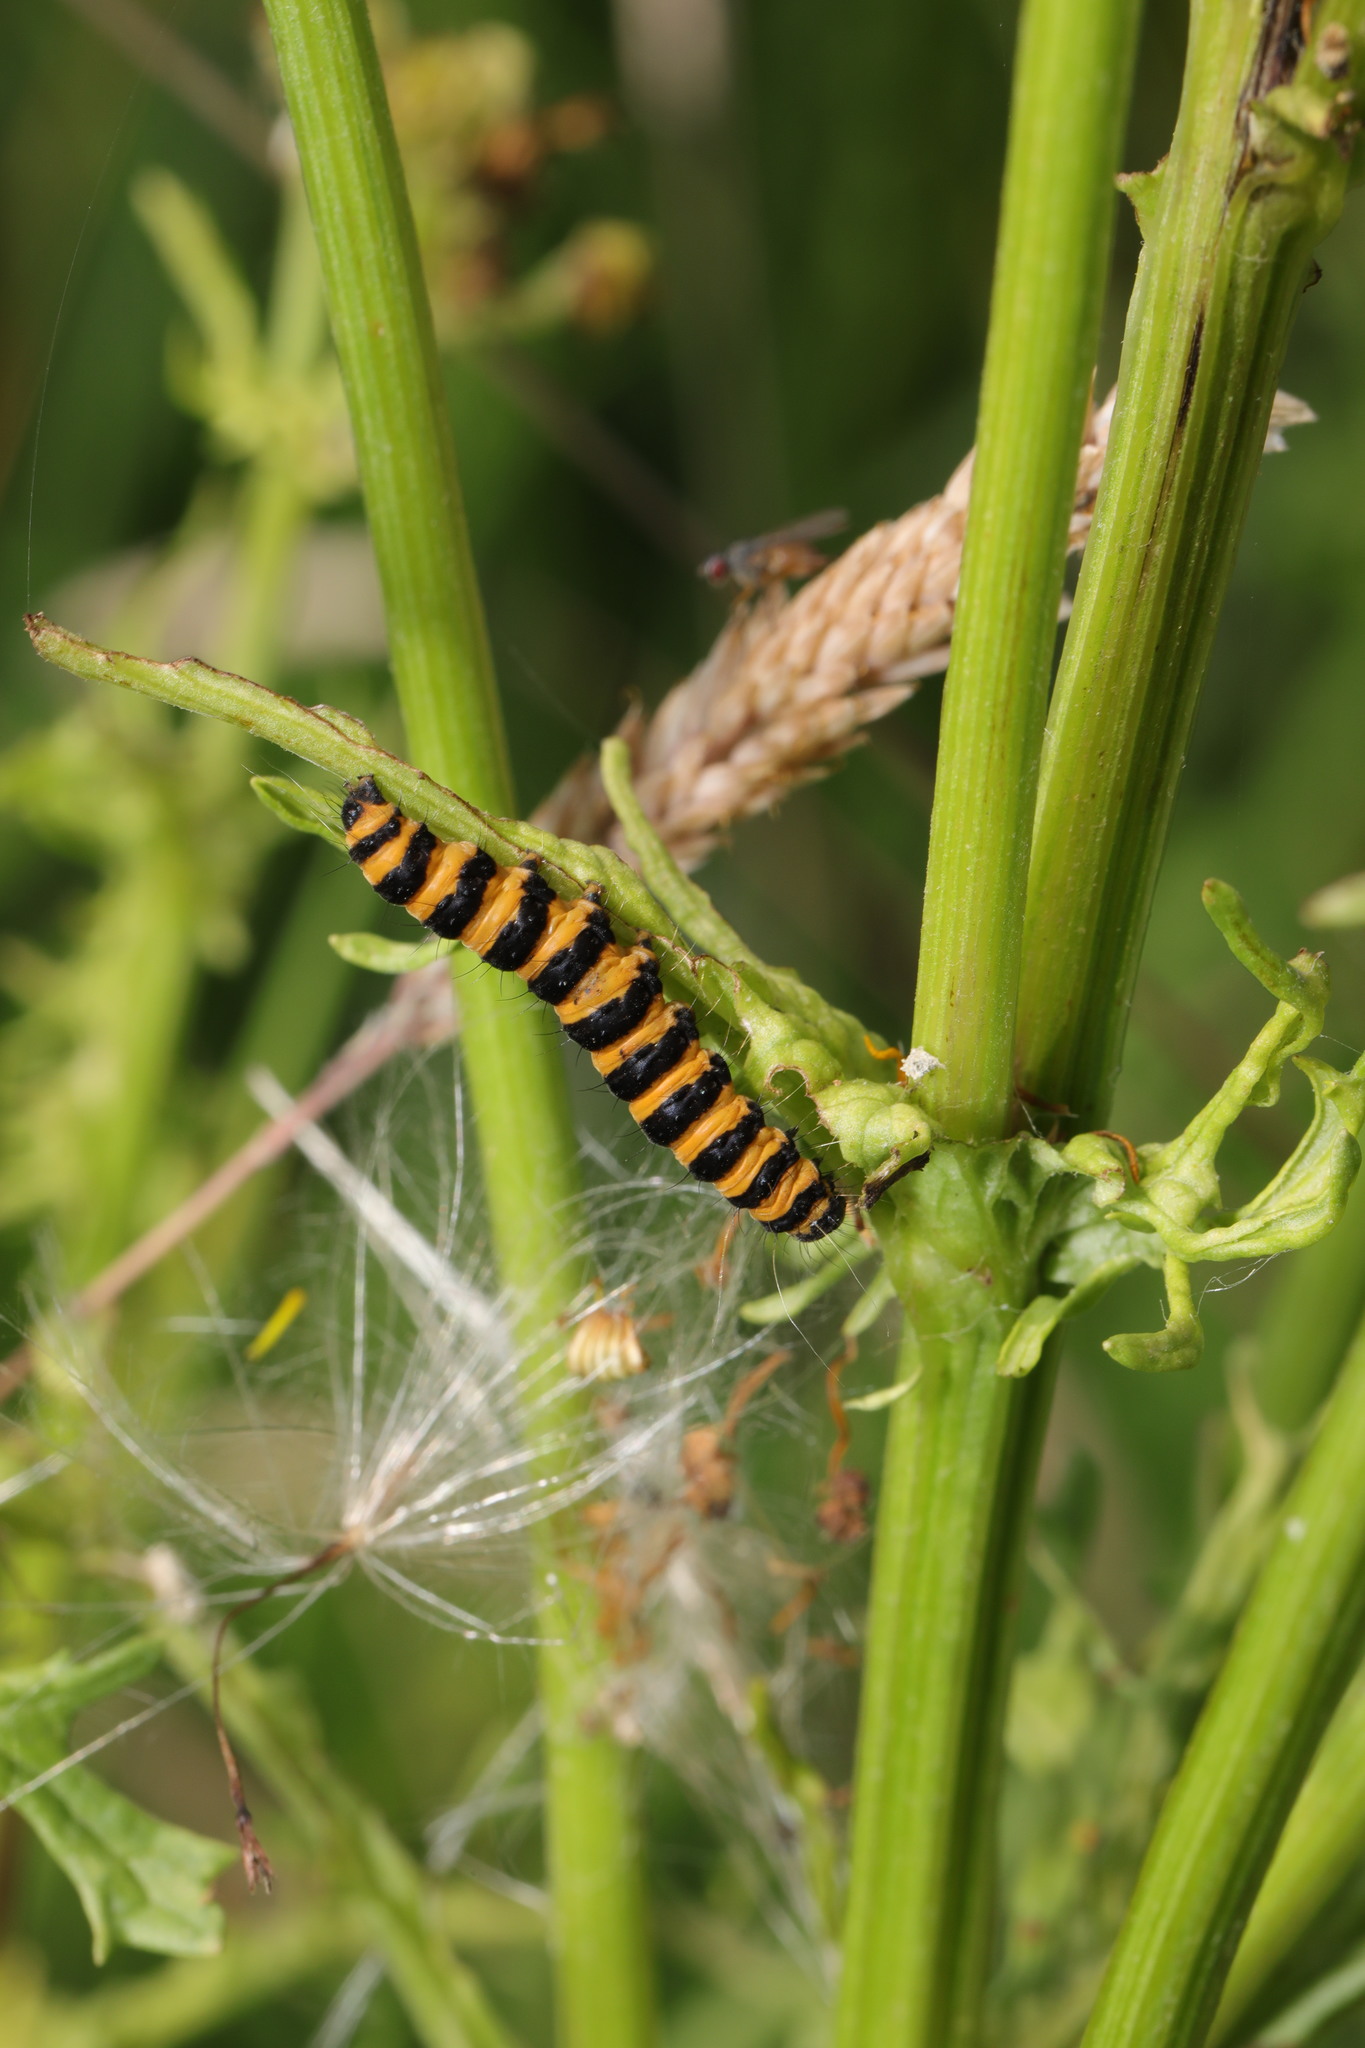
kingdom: Animalia
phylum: Arthropoda
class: Insecta
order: Lepidoptera
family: Erebidae
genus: Tyria
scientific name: Tyria jacobaeae
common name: Cinnabar
